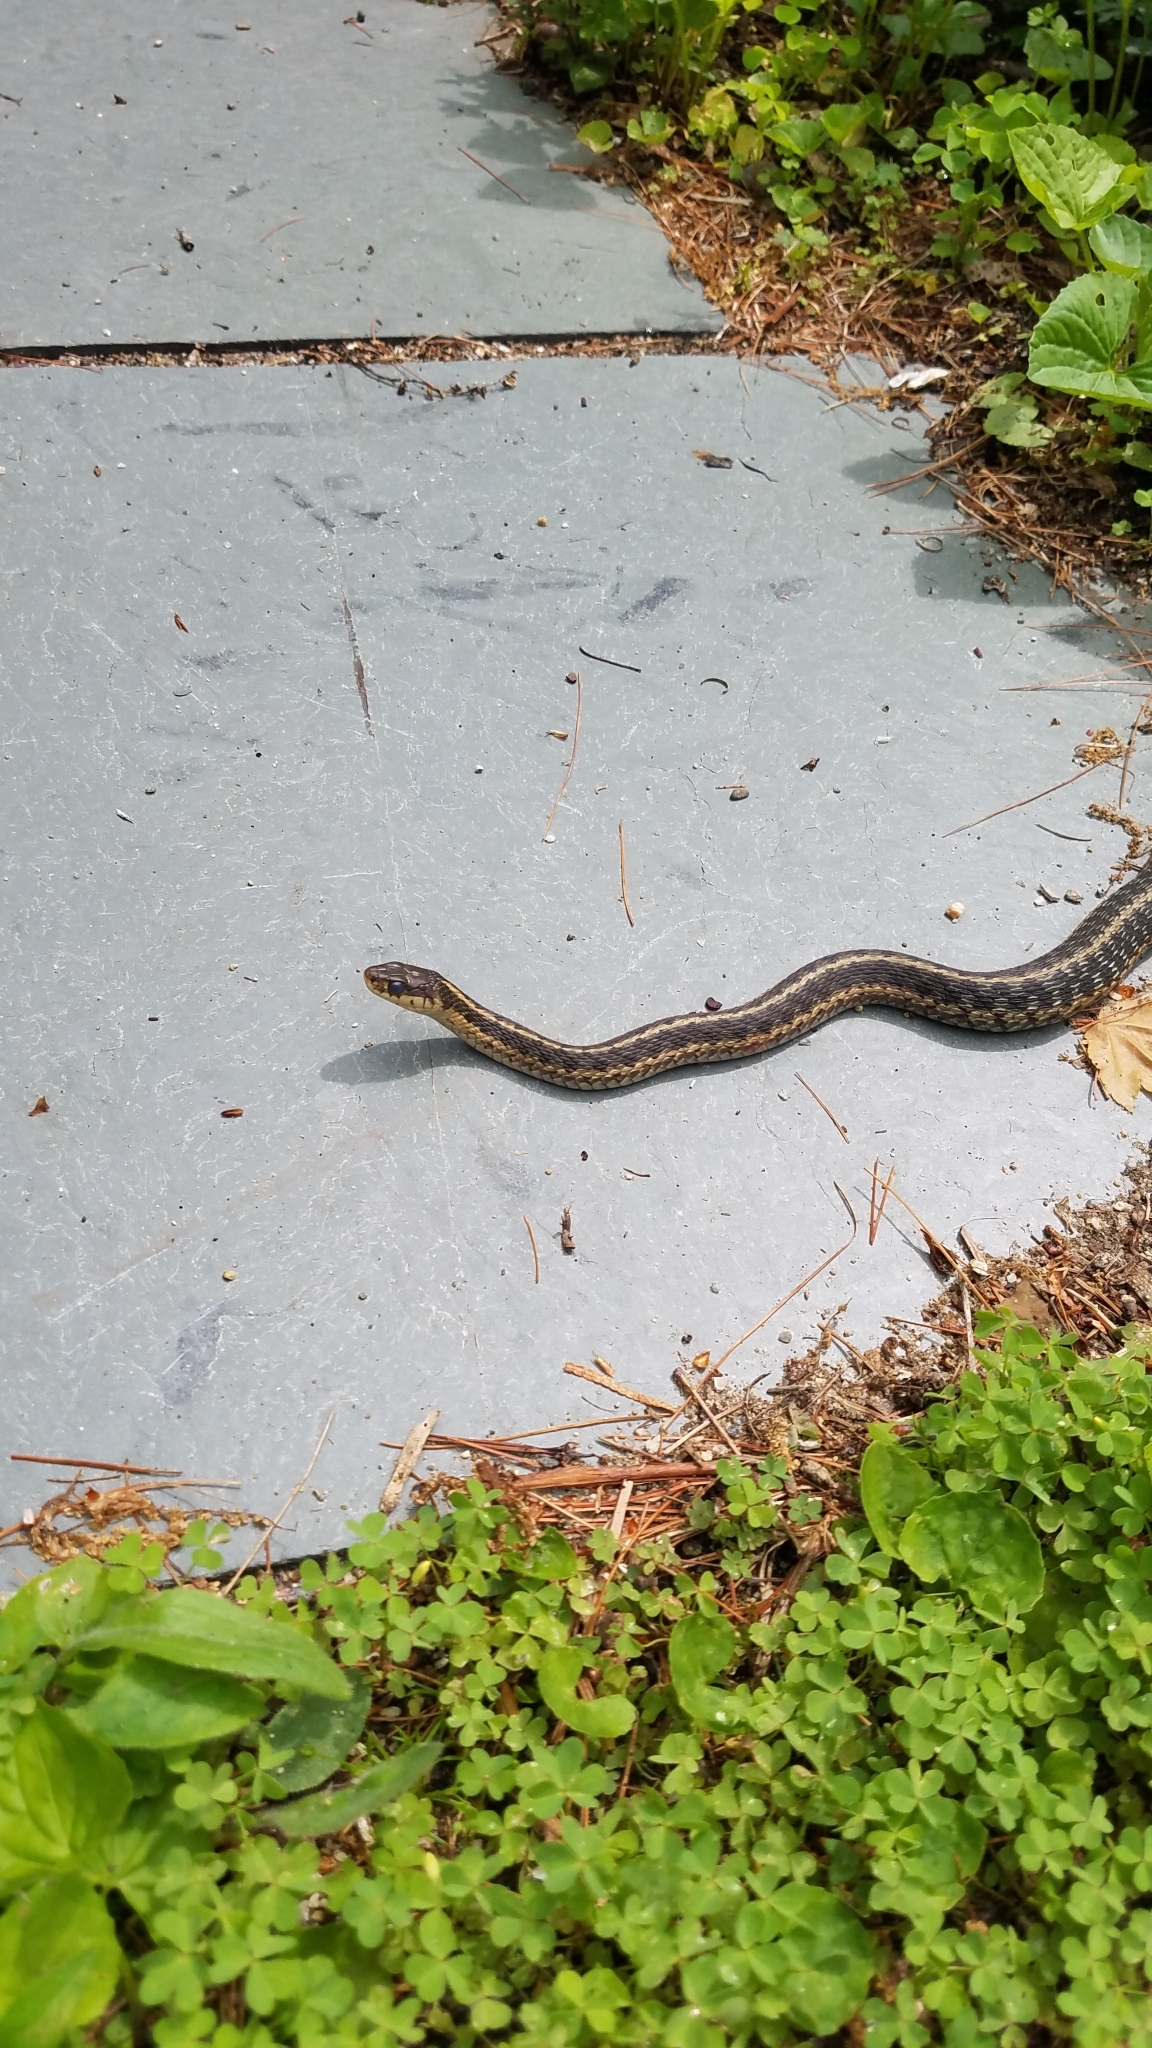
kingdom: Animalia
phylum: Chordata
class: Squamata
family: Colubridae
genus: Thamnophis
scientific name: Thamnophis sirtalis
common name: Common garter snake
